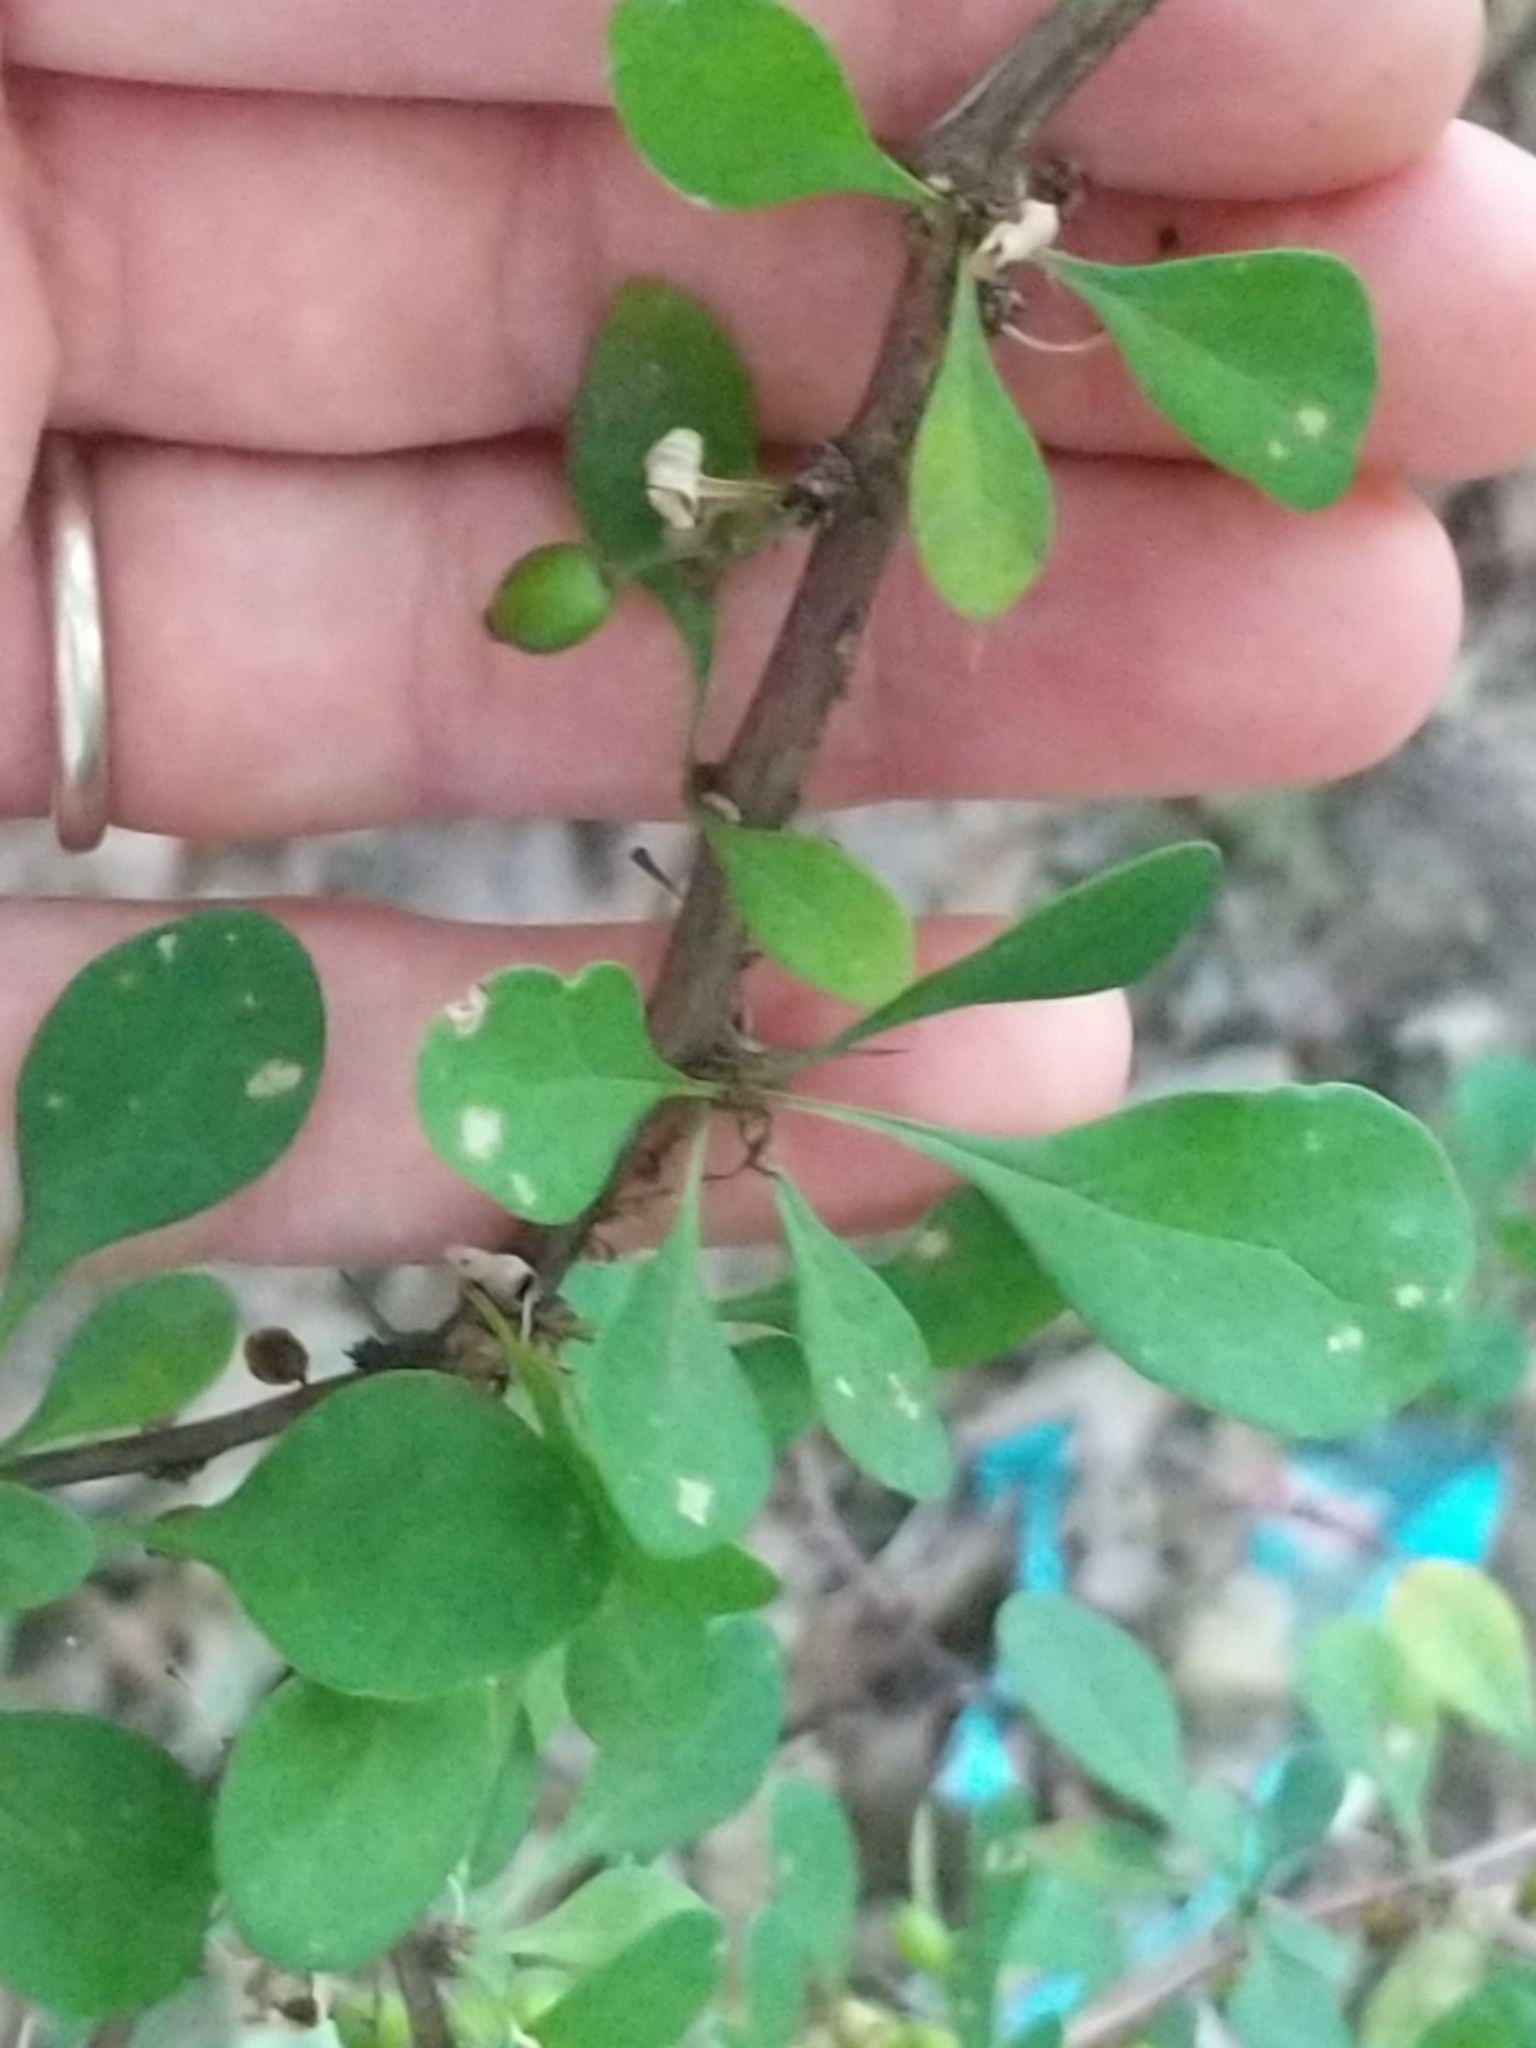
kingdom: Plantae
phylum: Tracheophyta
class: Magnoliopsida
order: Ranunculales
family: Berberidaceae
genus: Berberis
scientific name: Berberis thunbergii
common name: Japanese barberry
